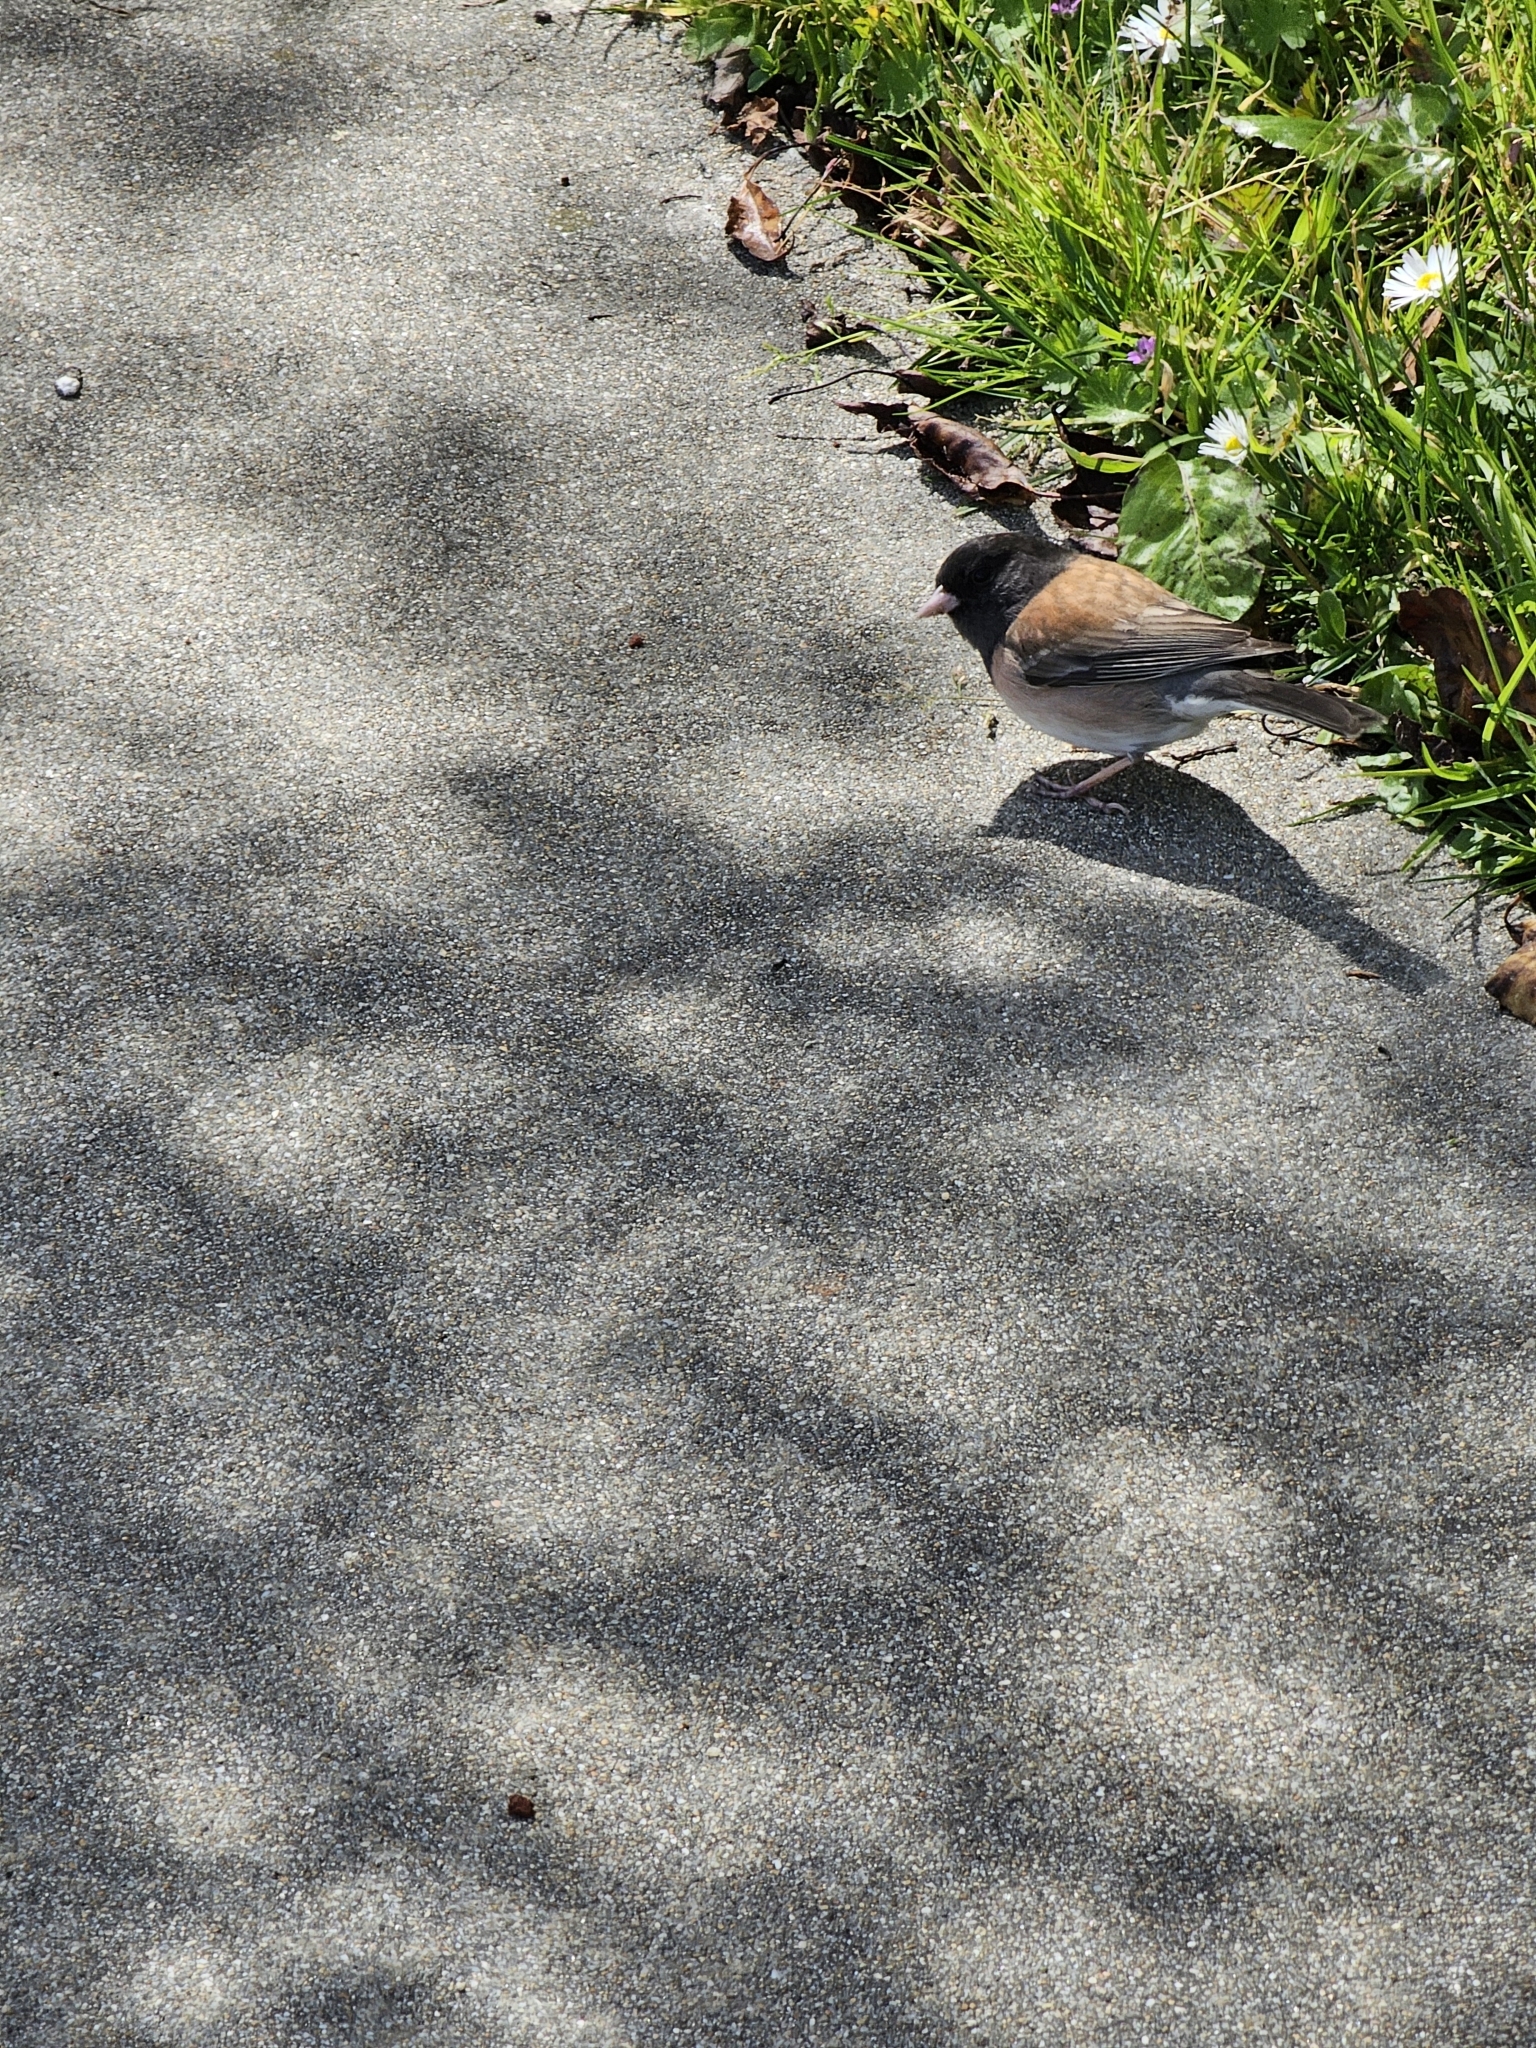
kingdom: Animalia
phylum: Chordata
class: Aves
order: Passeriformes
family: Passerellidae
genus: Junco
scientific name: Junco hyemalis
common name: Dark-eyed junco
